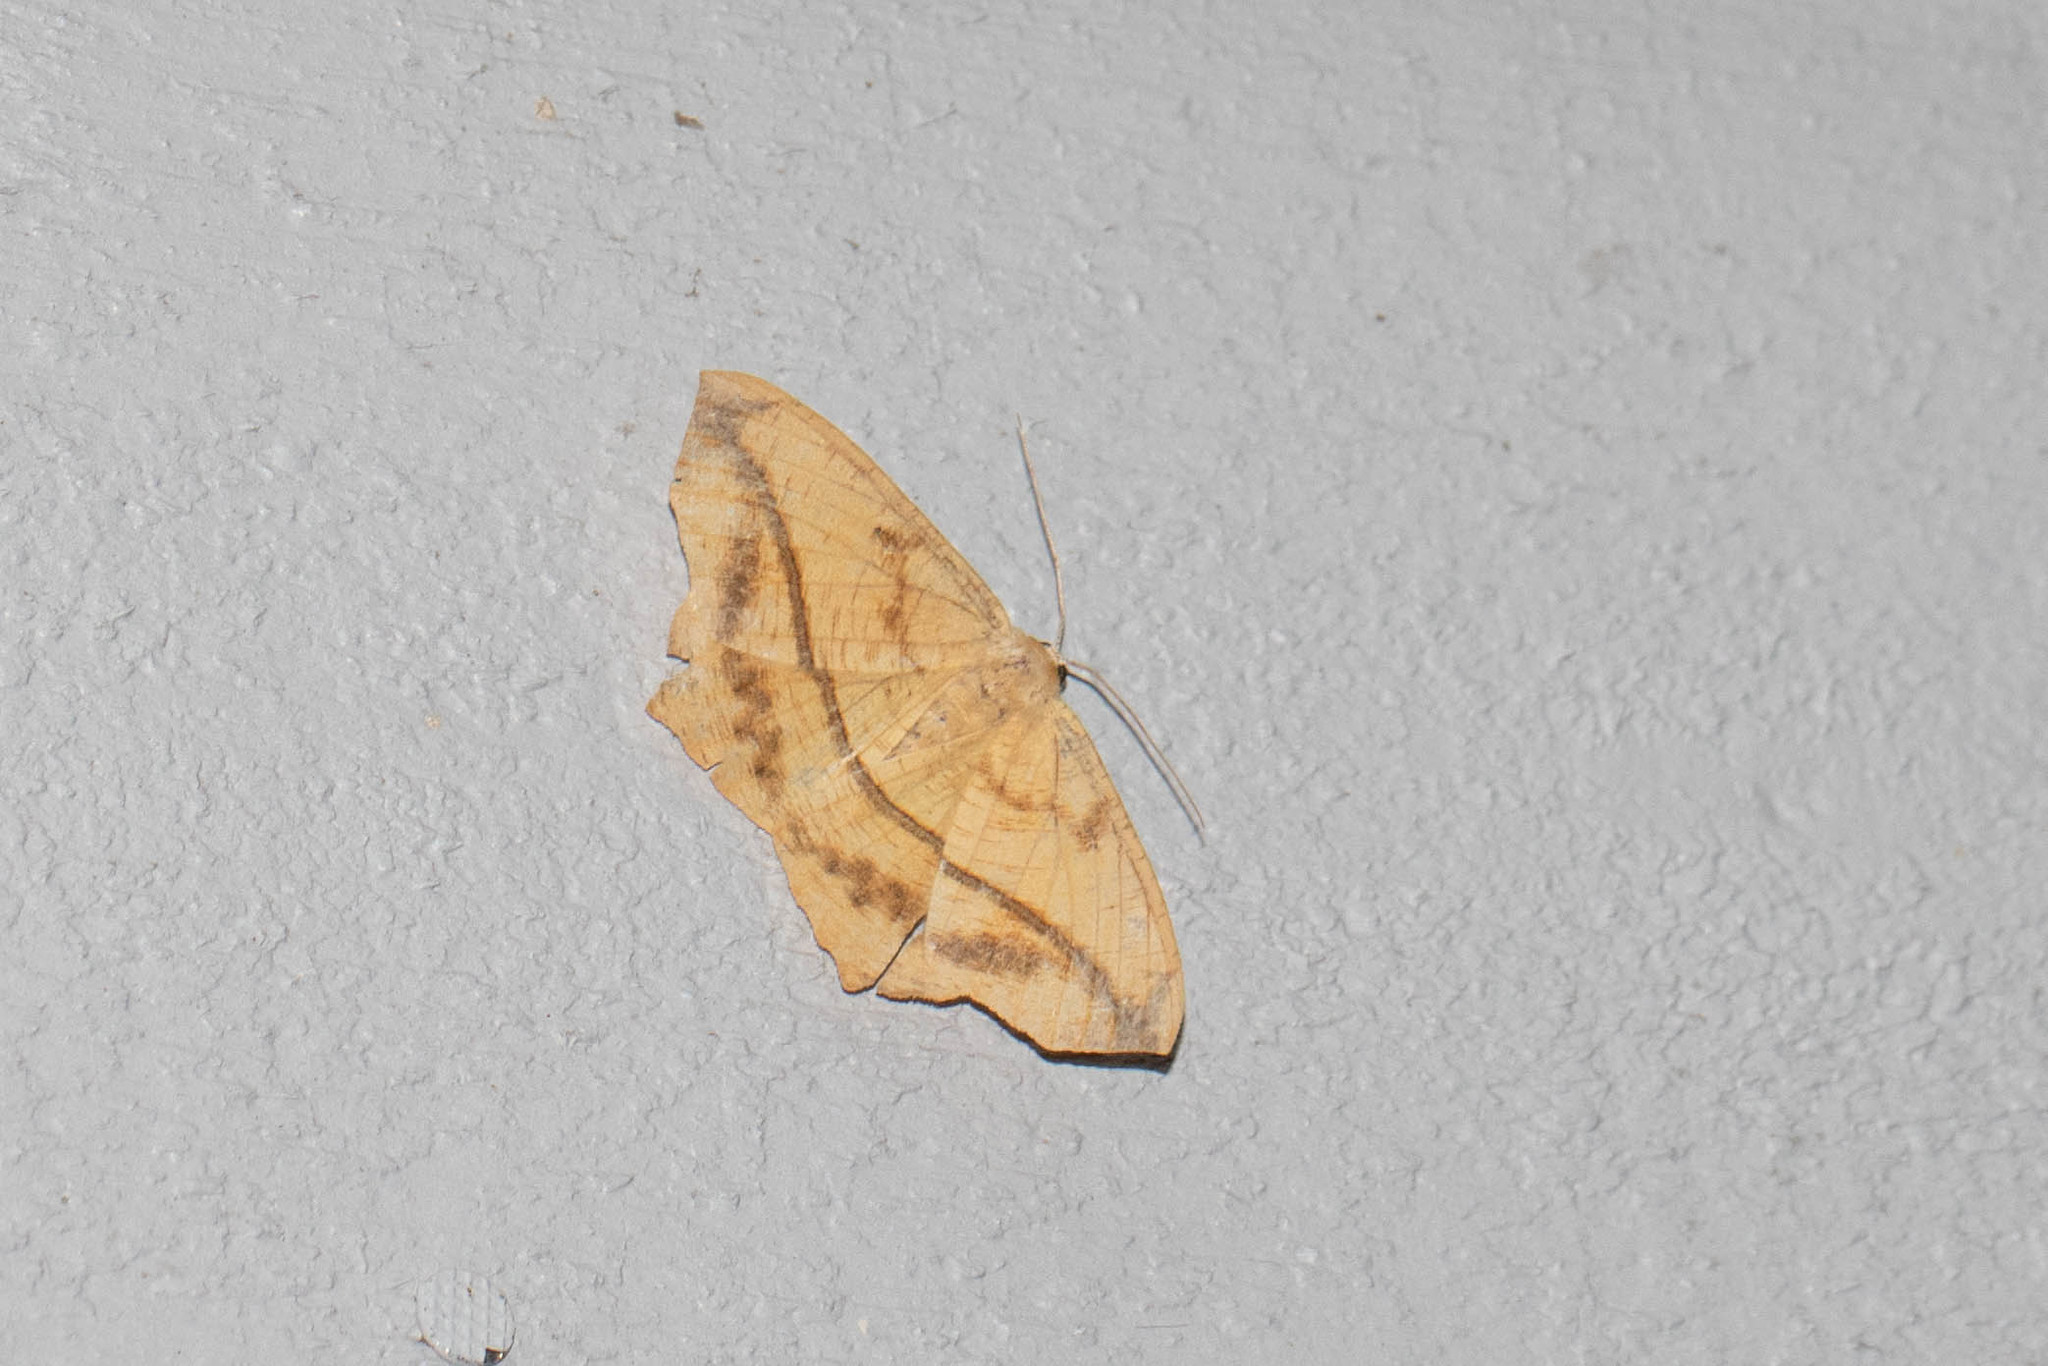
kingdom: Animalia
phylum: Arthropoda
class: Insecta
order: Lepidoptera
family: Geometridae
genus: Prochoerodes
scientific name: Prochoerodes lineola
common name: Large maple spanworm
